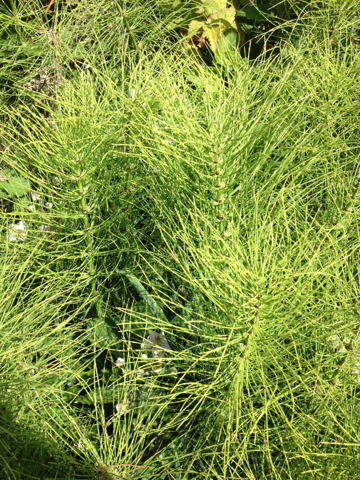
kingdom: Plantae
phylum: Tracheophyta
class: Polypodiopsida
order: Equisetales
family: Equisetaceae
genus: Equisetum
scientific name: Equisetum telmateia
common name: Great horsetail
